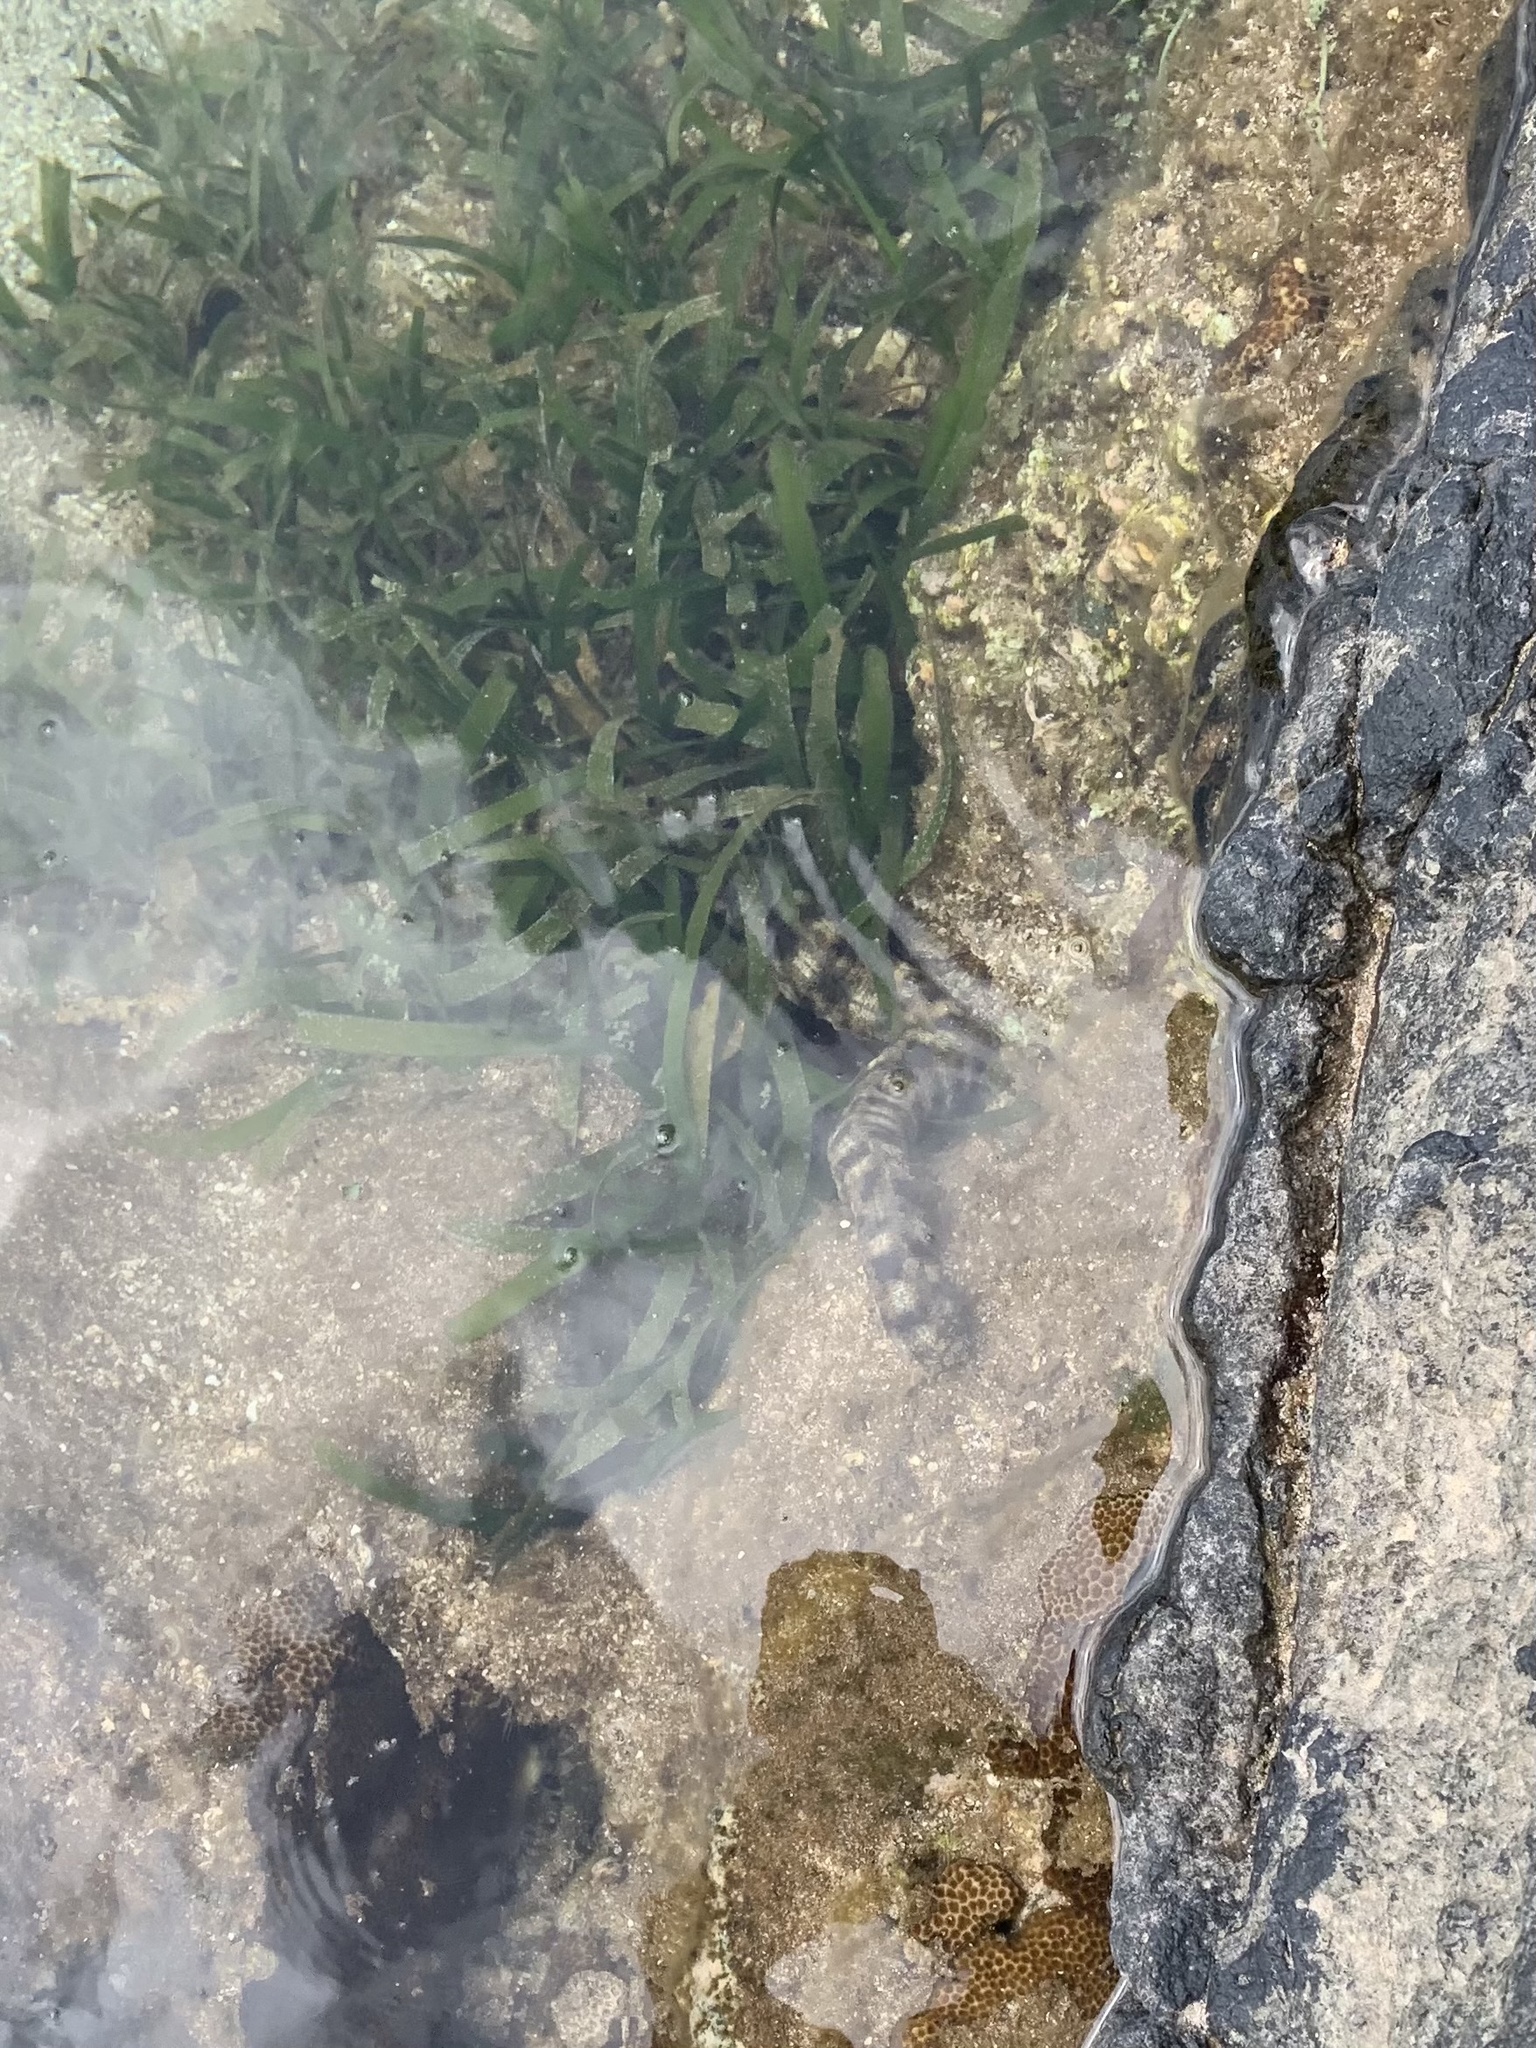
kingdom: Animalia
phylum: Echinodermata
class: Holothuroidea
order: Apodida
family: Synaptidae
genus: Synapta
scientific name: Synapta maculata
